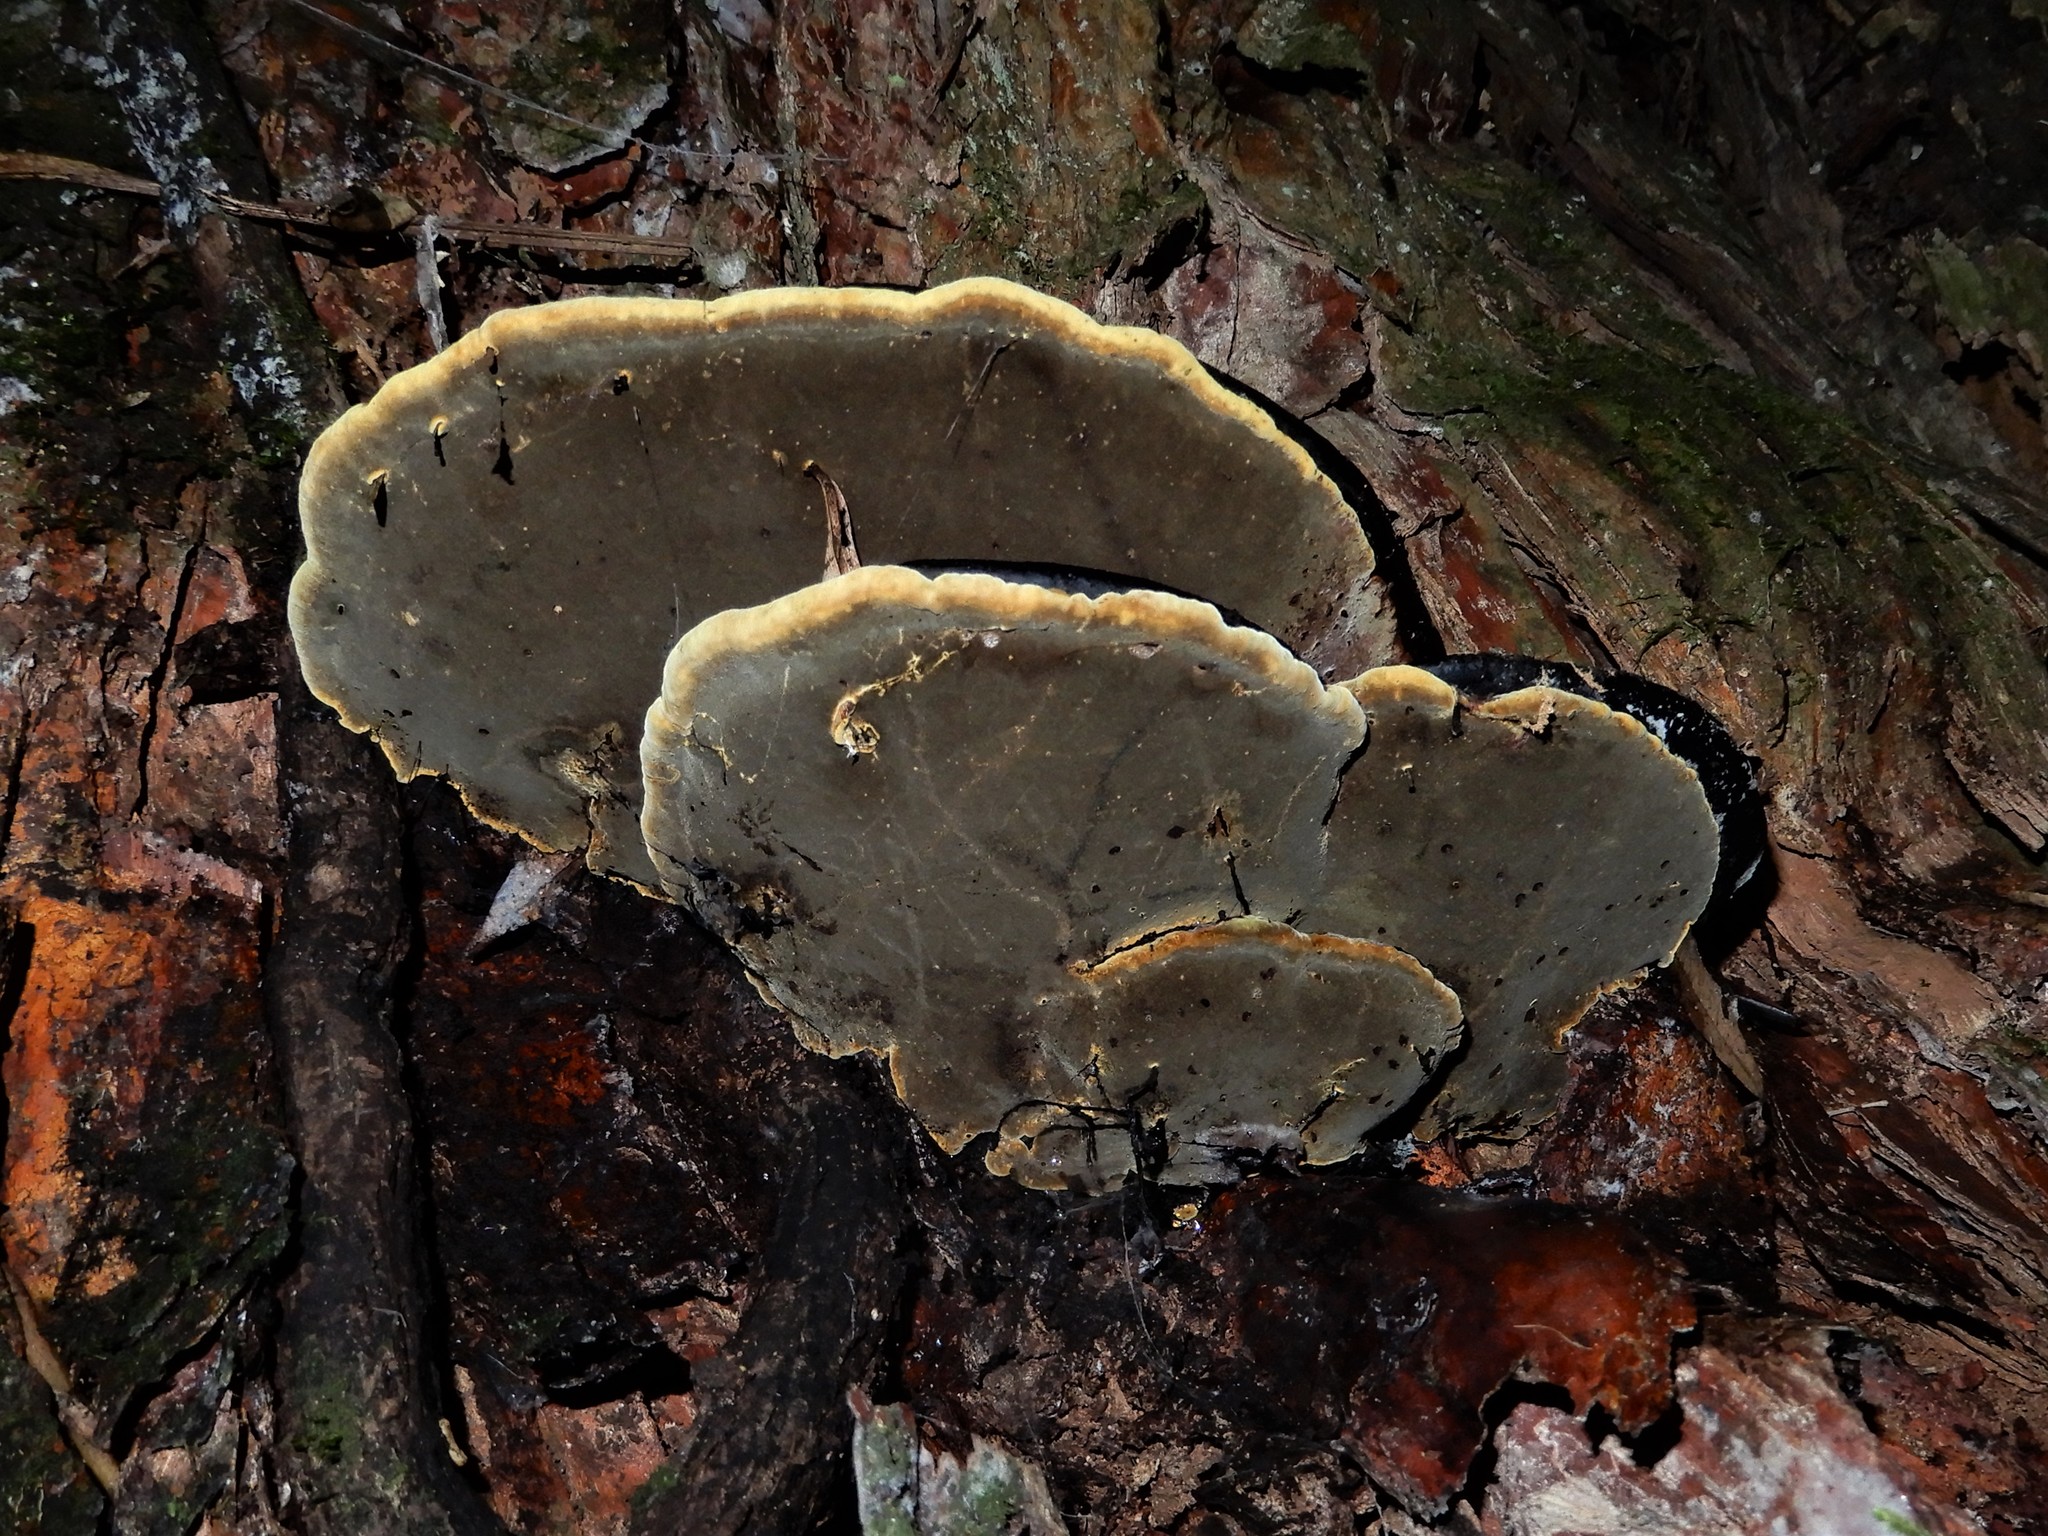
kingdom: Fungi
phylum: Basidiomycota
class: Agaricomycetes
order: Hymenochaetales
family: Hymenochaetaceae
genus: Phellinus
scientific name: Phellinus gilvus
